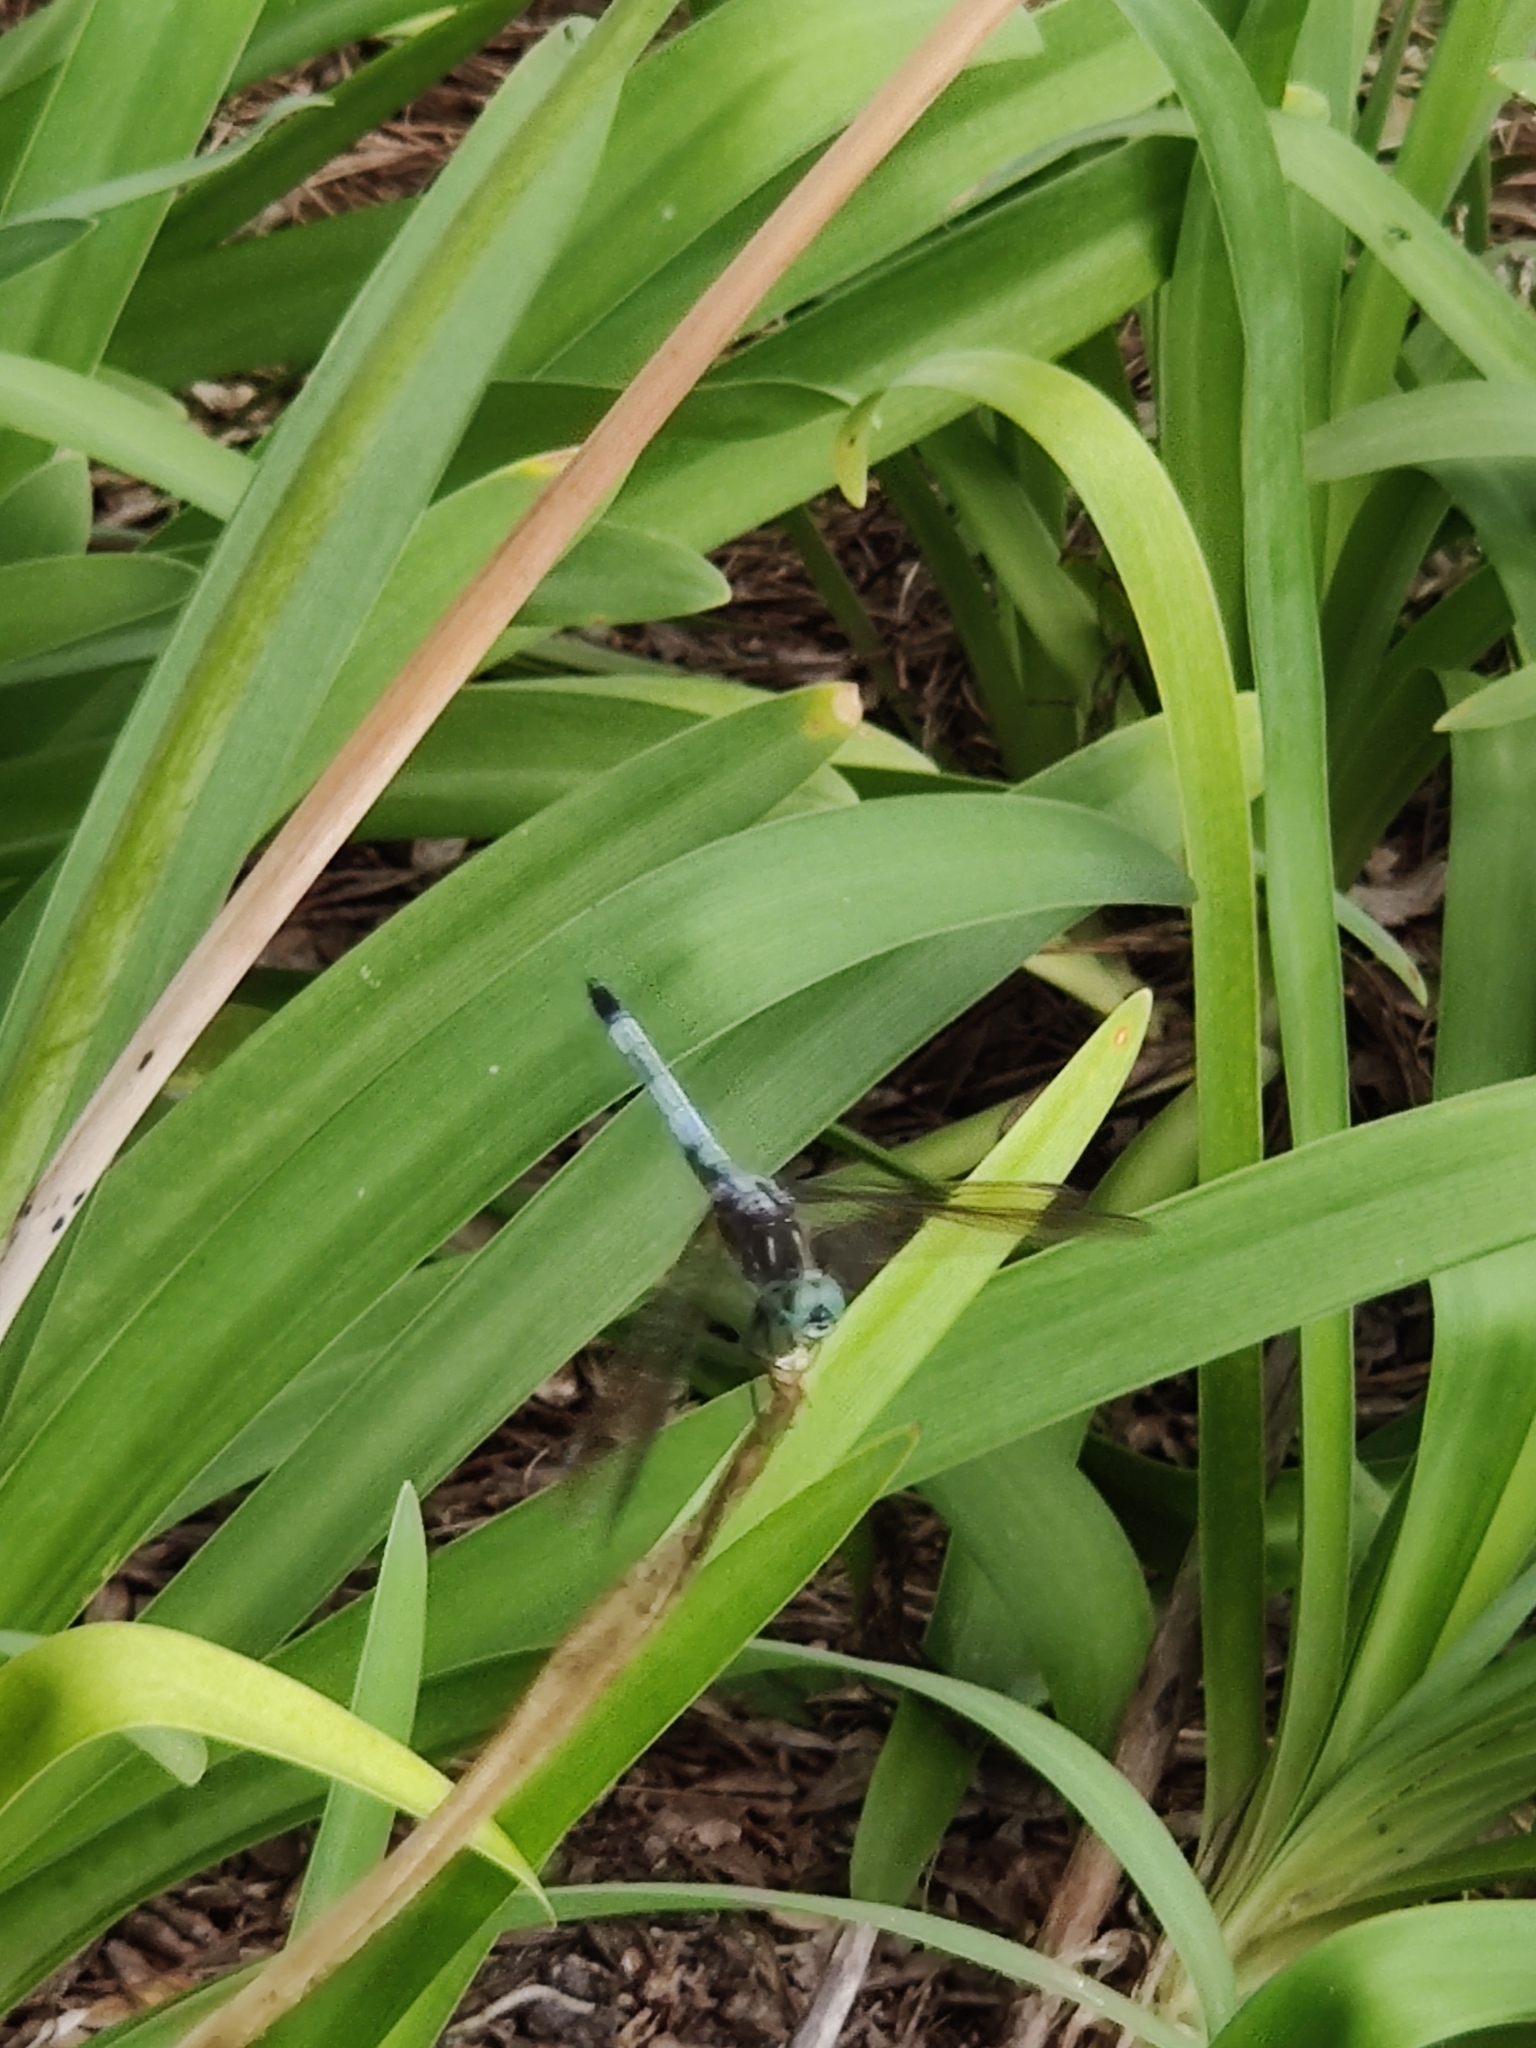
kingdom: Animalia
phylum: Arthropoda
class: Insecta
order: Odonata
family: Libellulidae
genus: Pachydiplax
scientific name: Pachydiplax longipennis
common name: Blue dasher
